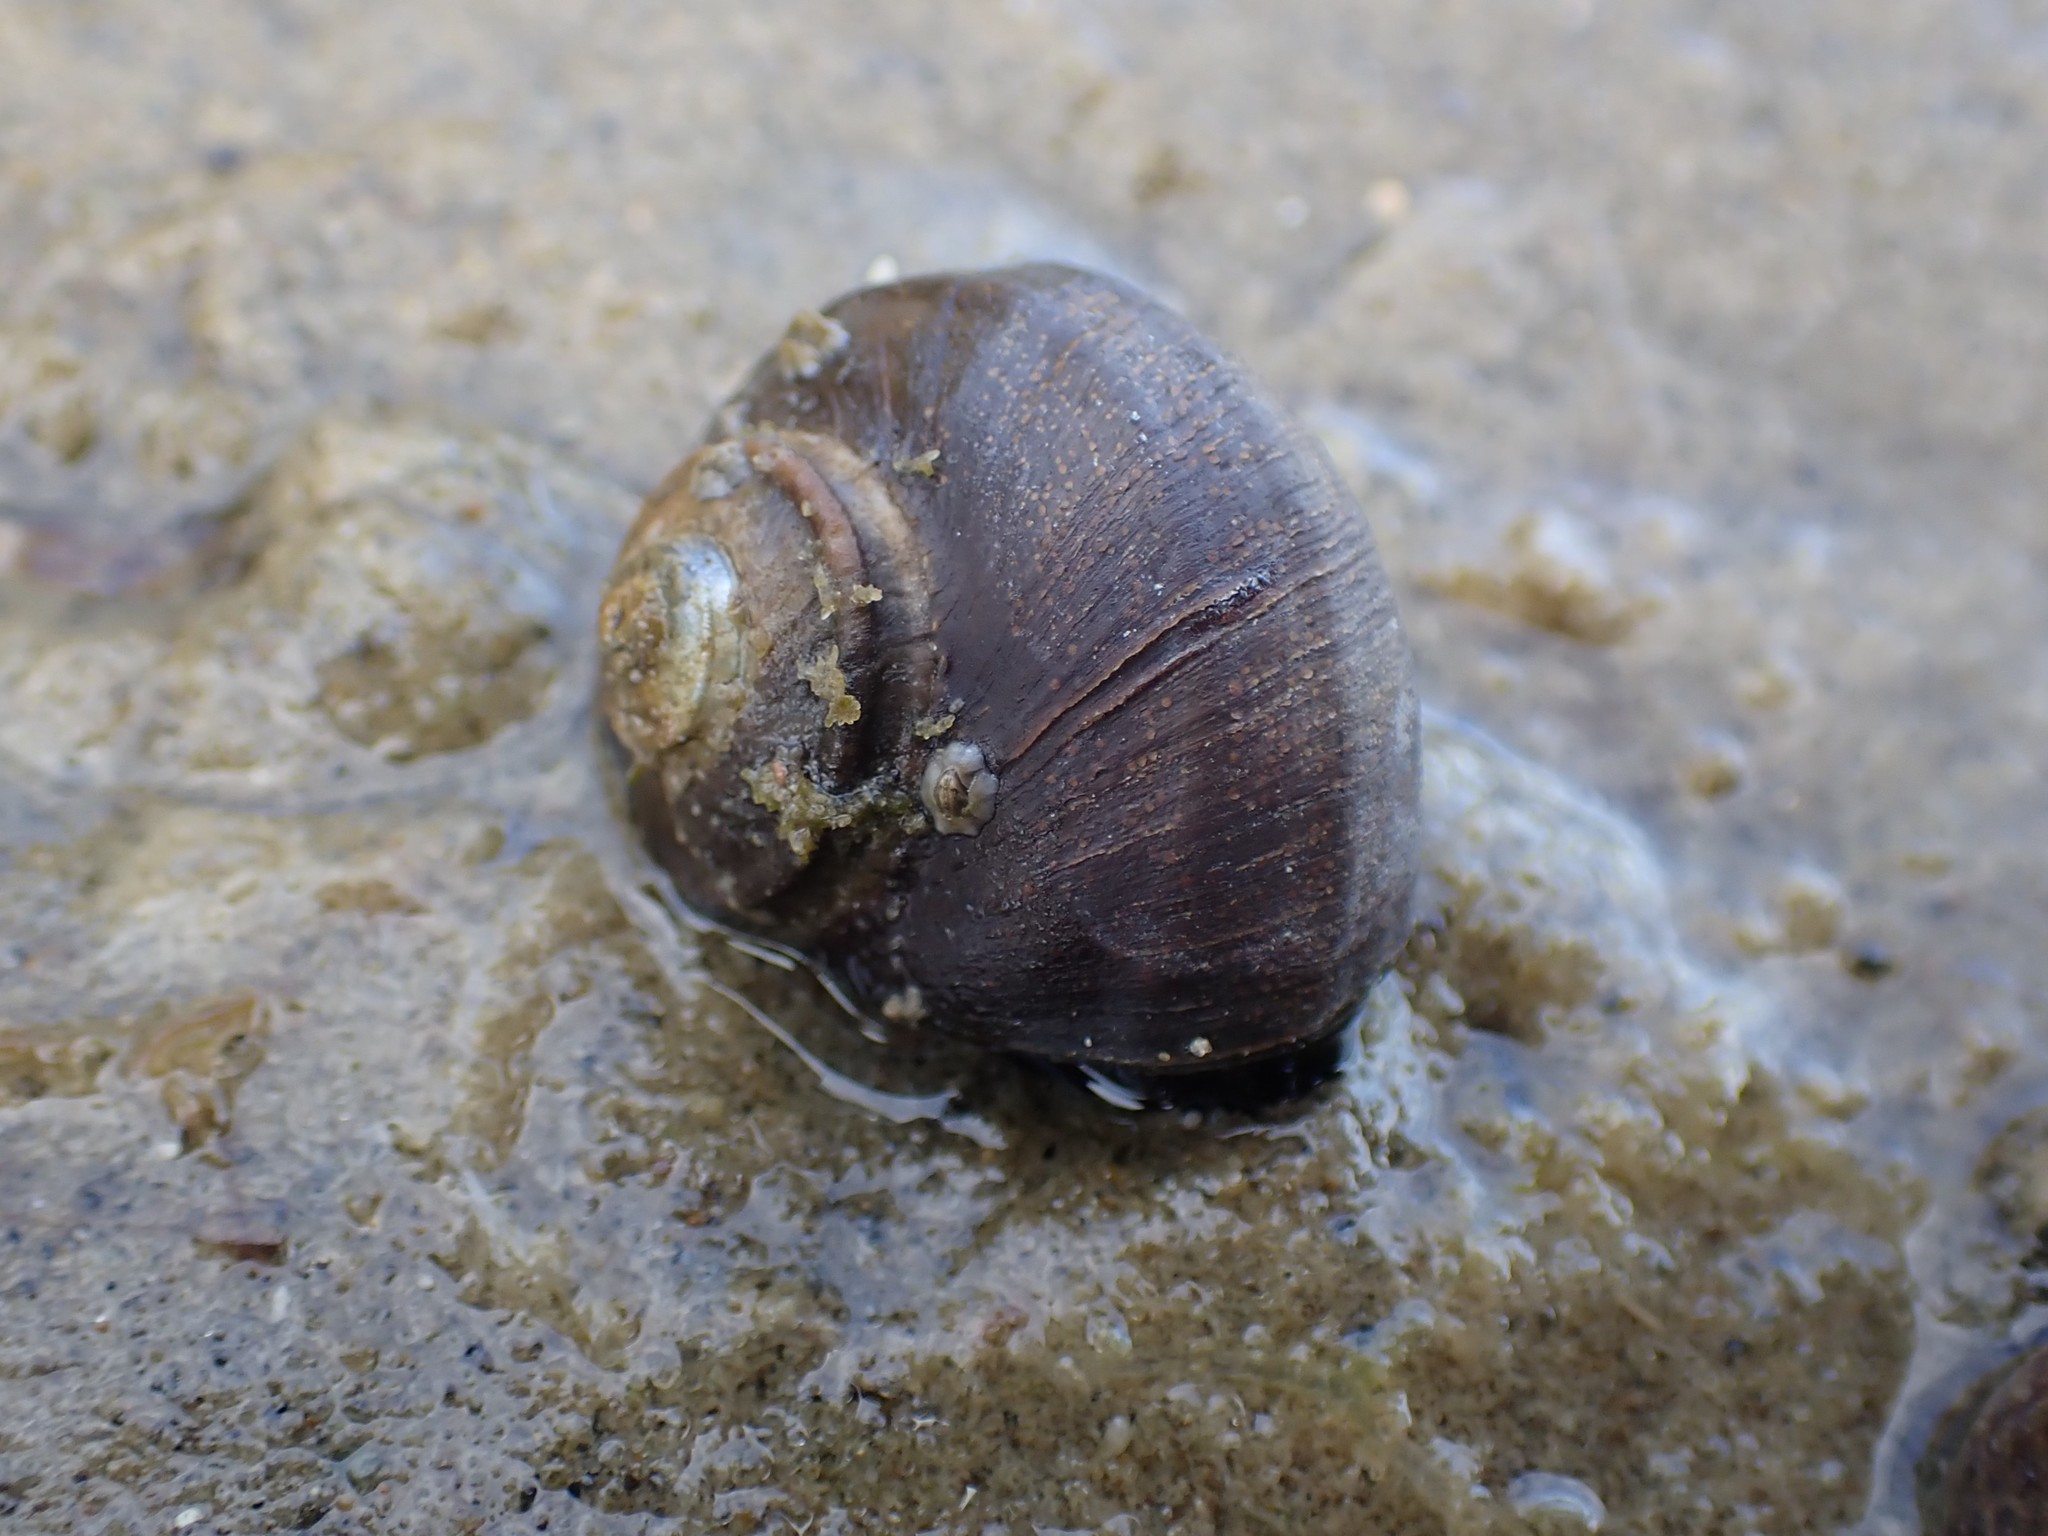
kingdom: Animalia
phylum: Mollusca
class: Gastropoda
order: Trochida
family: Turbinidae
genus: Lunella
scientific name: Lunella smaragda
